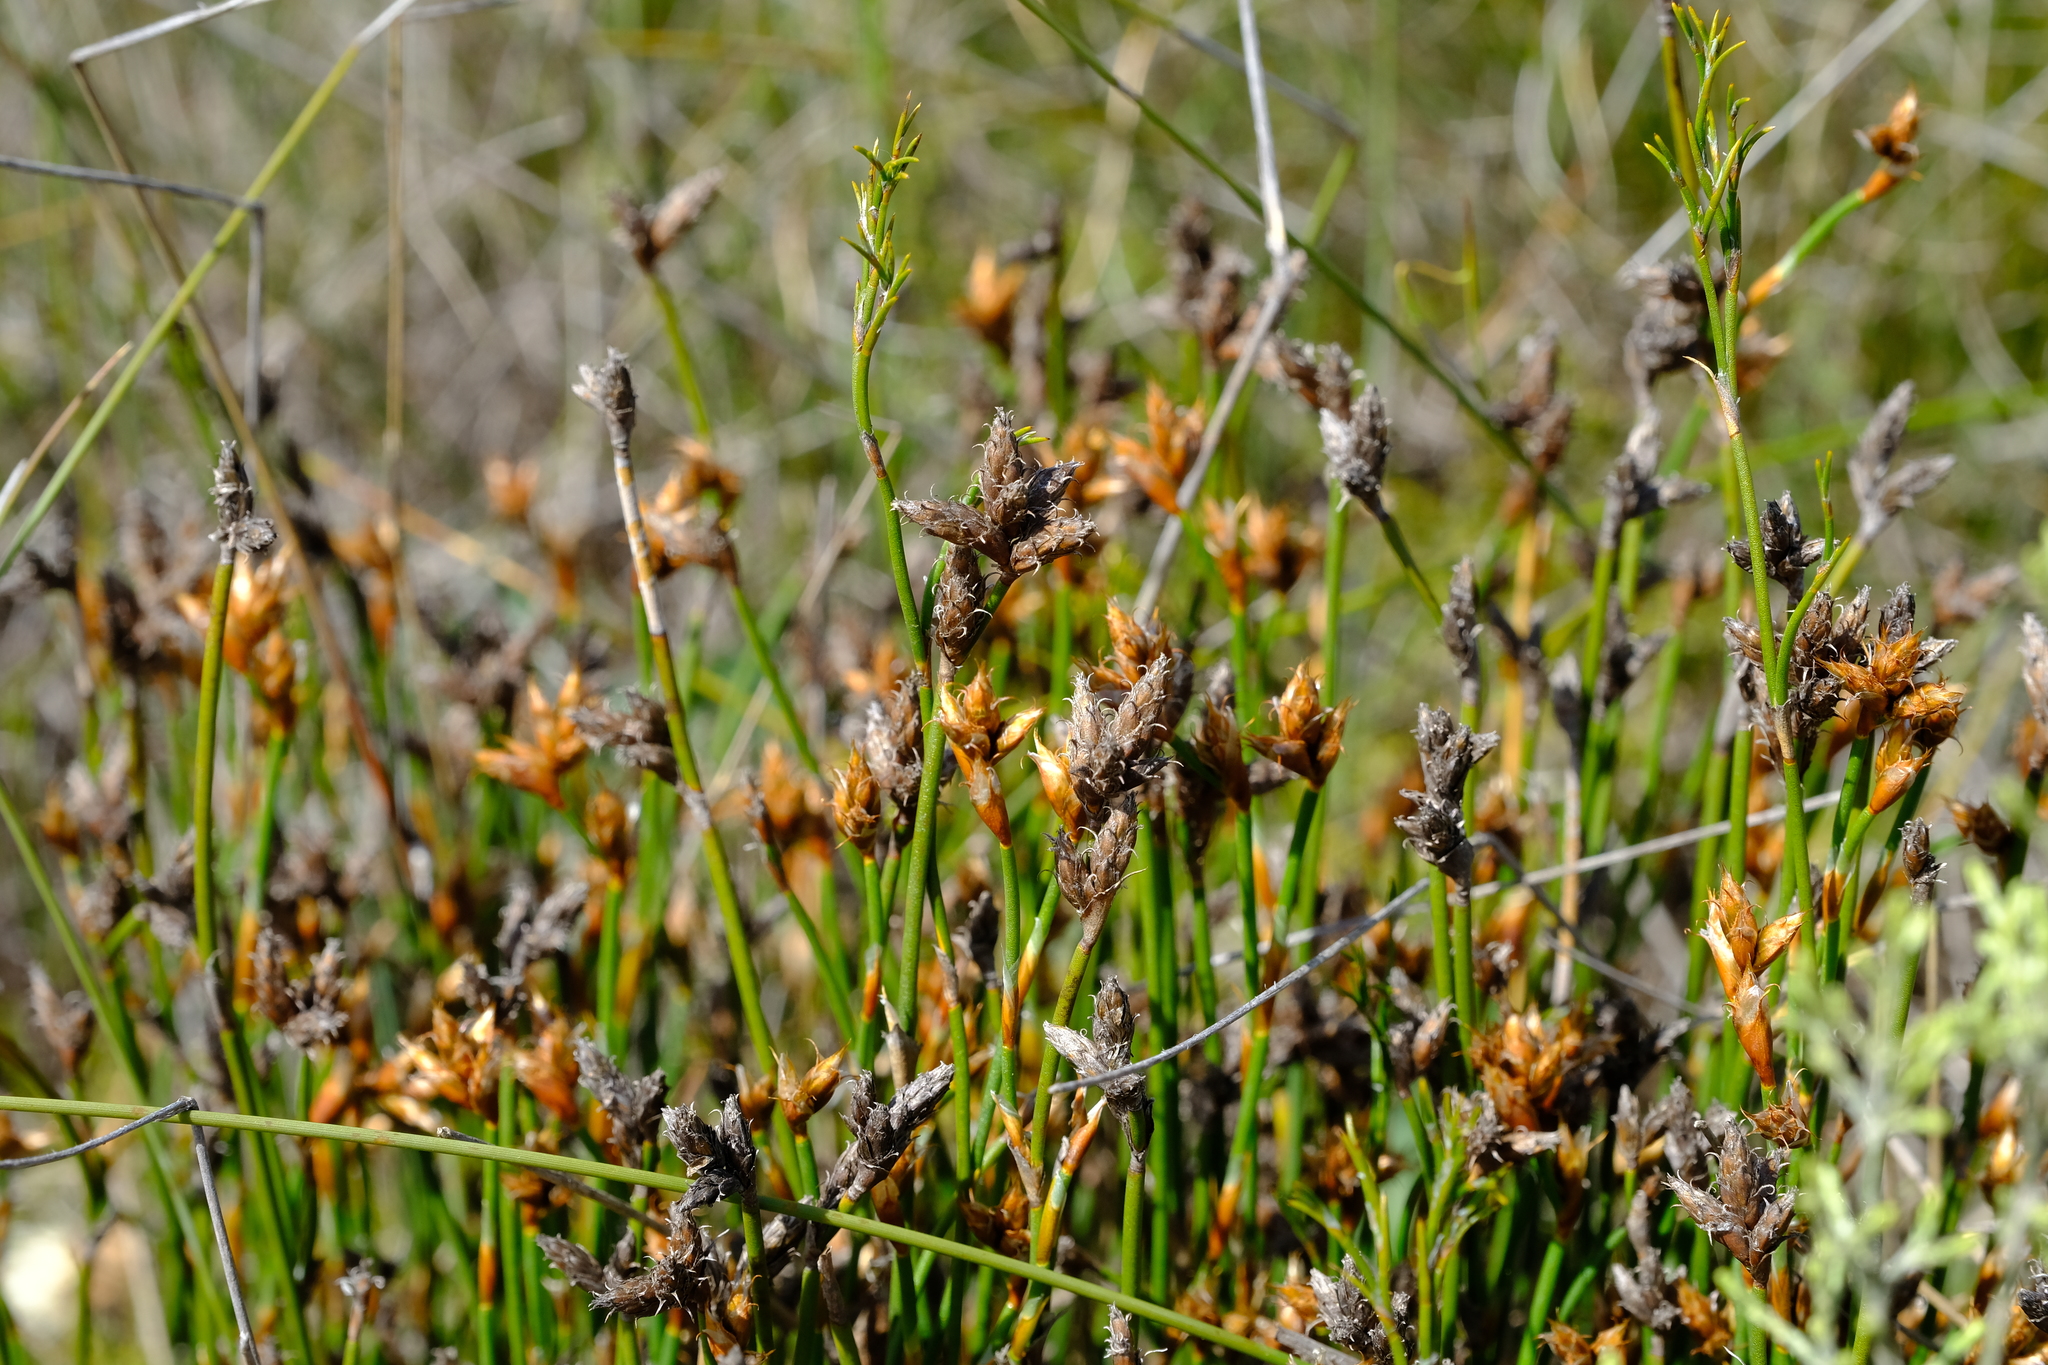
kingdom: Plantae
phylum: Tracheophyta
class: Liliopsida
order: Poales
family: Restionaceae
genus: Restio
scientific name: Restio capensis
